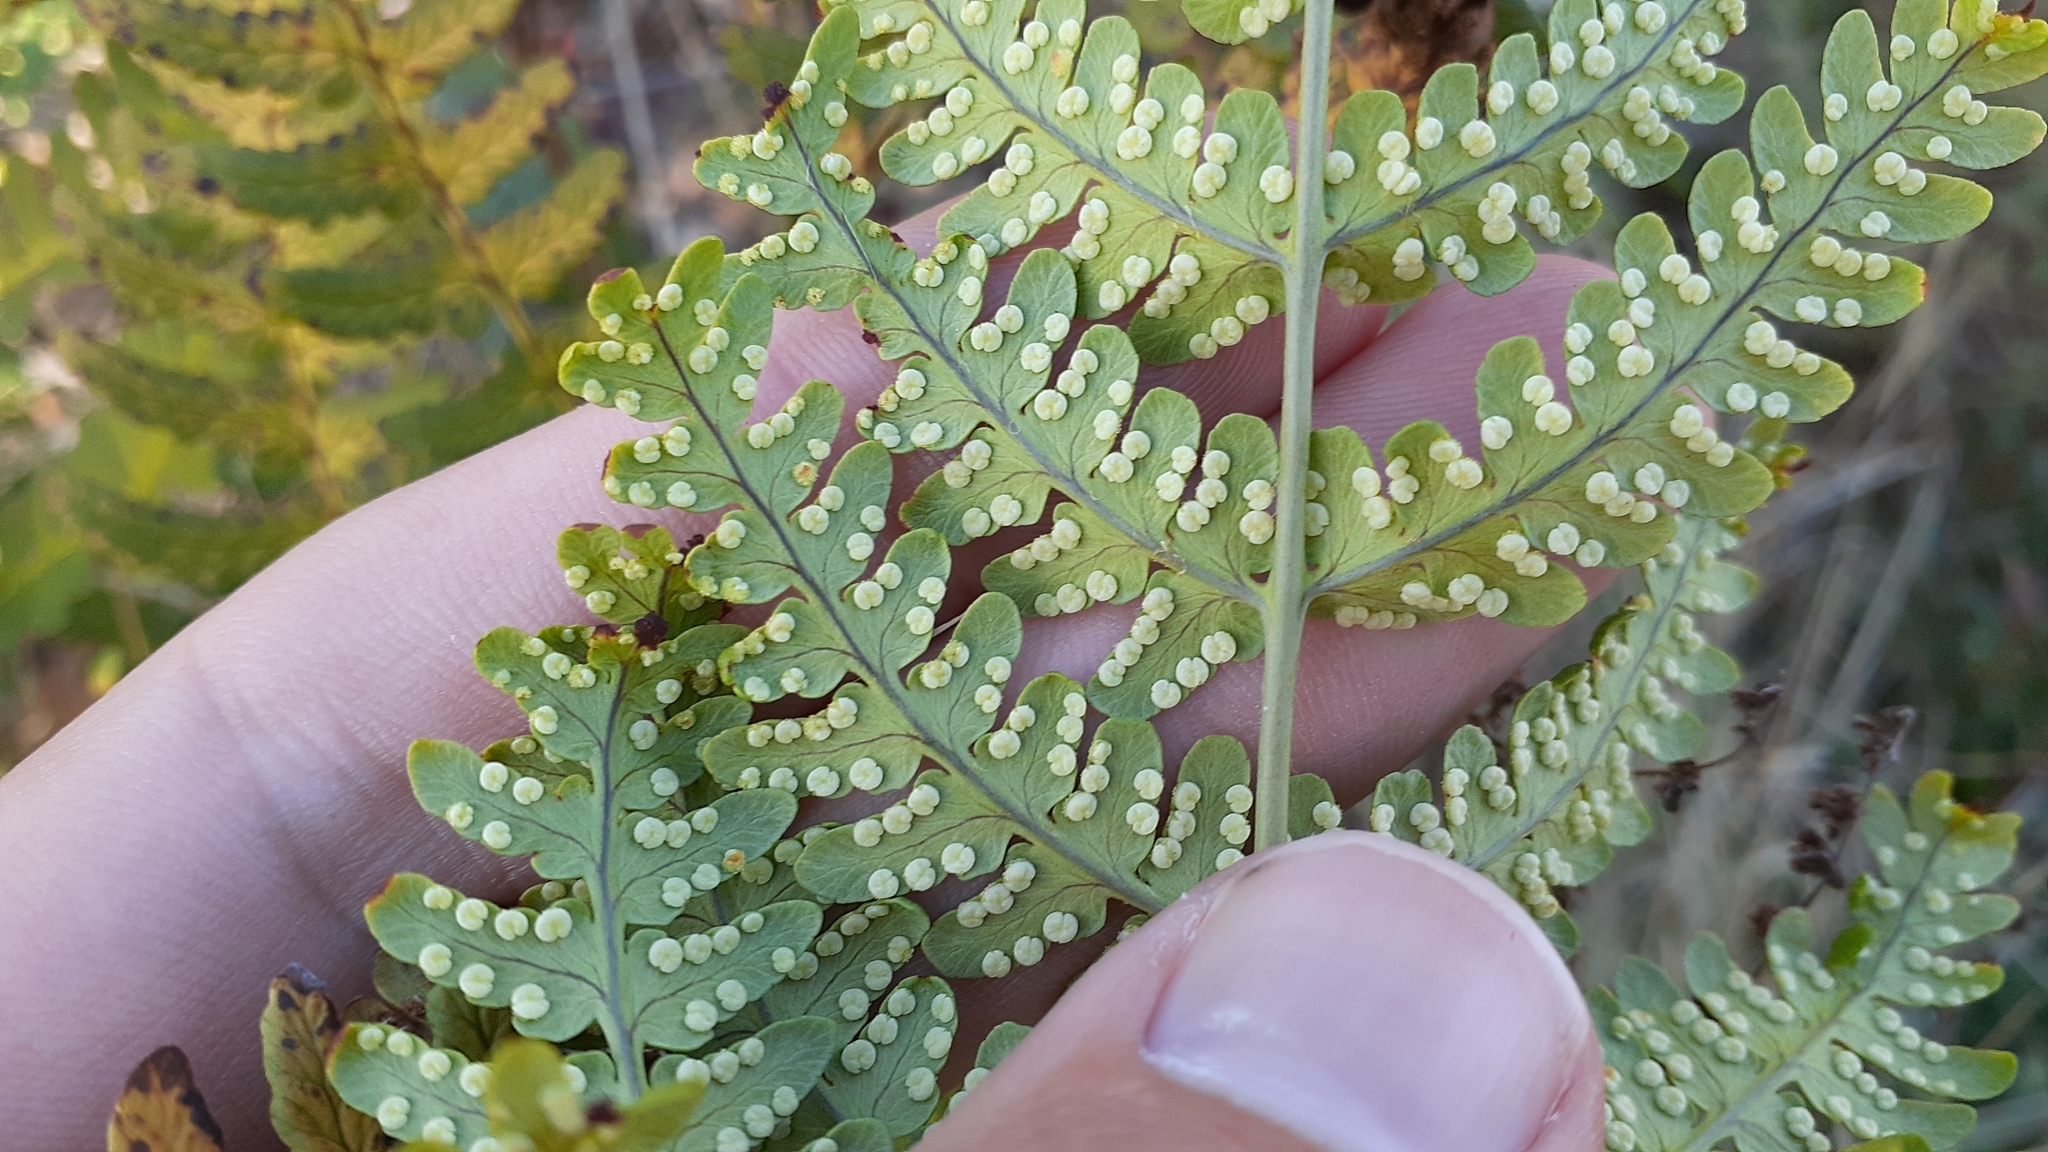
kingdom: Plantae
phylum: Tracheophyta
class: Polypodiopsida
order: Polypodiales
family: Dryopteridaceae
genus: Dryopteris
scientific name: Dryopteris marginalis
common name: Marginal wood fern
